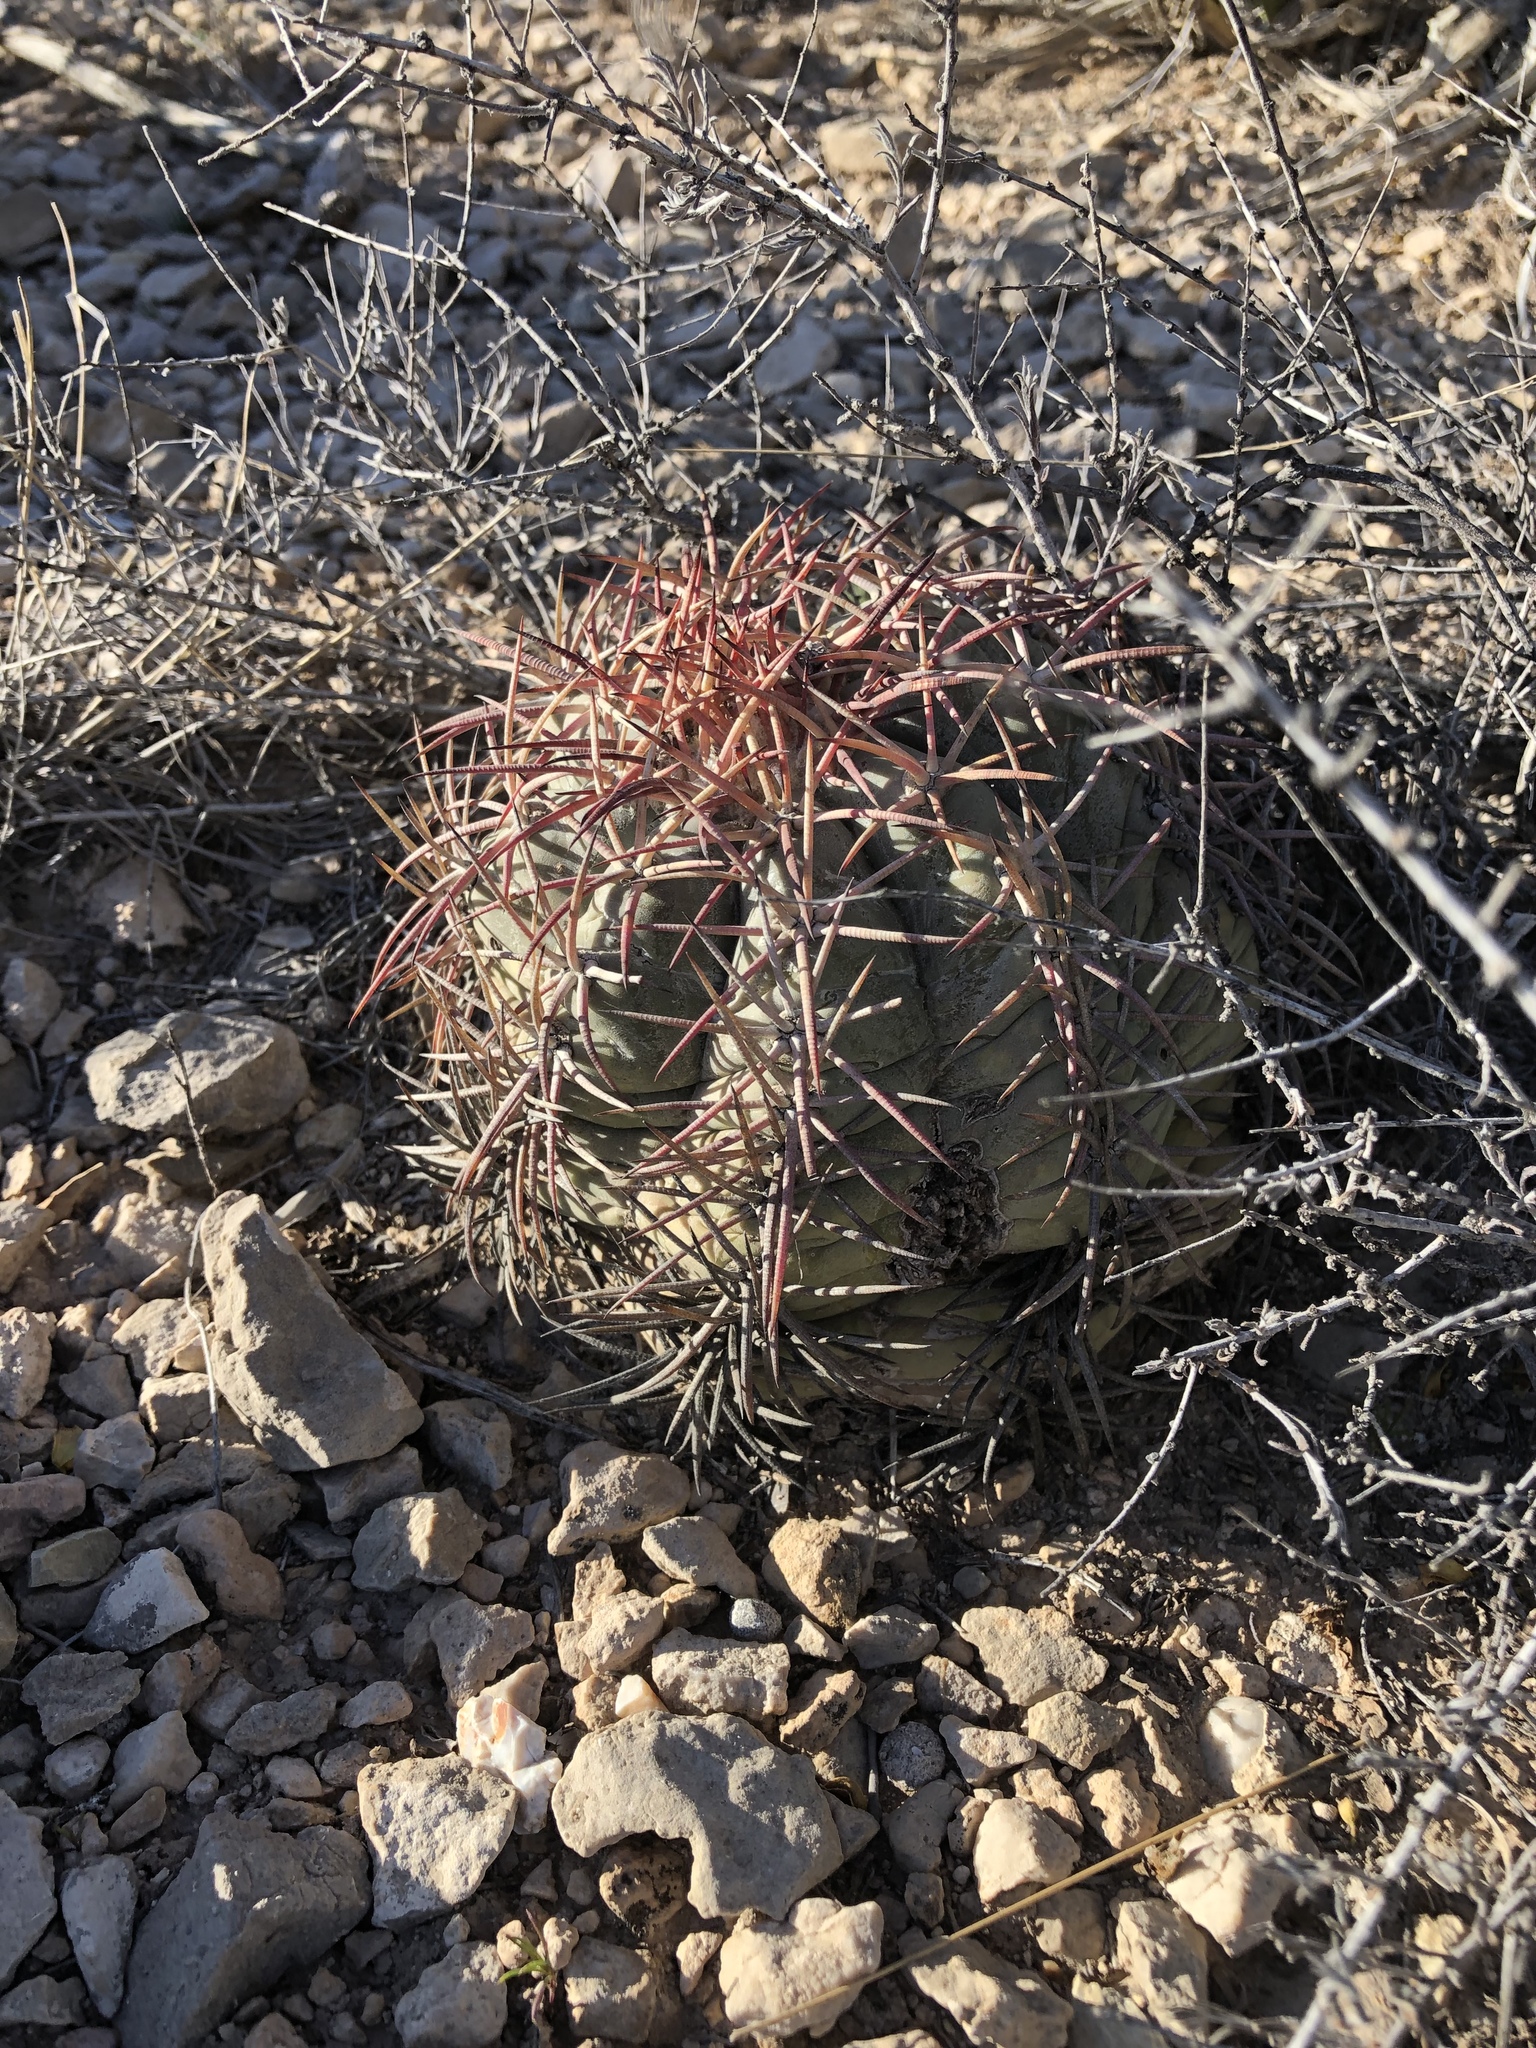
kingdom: Plantae
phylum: Tracheophyta
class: Magnoliopsida
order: Caryophyllales
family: Cactaceae
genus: Echinocactus
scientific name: Echinocactus horizonthalonius
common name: Devilshead
